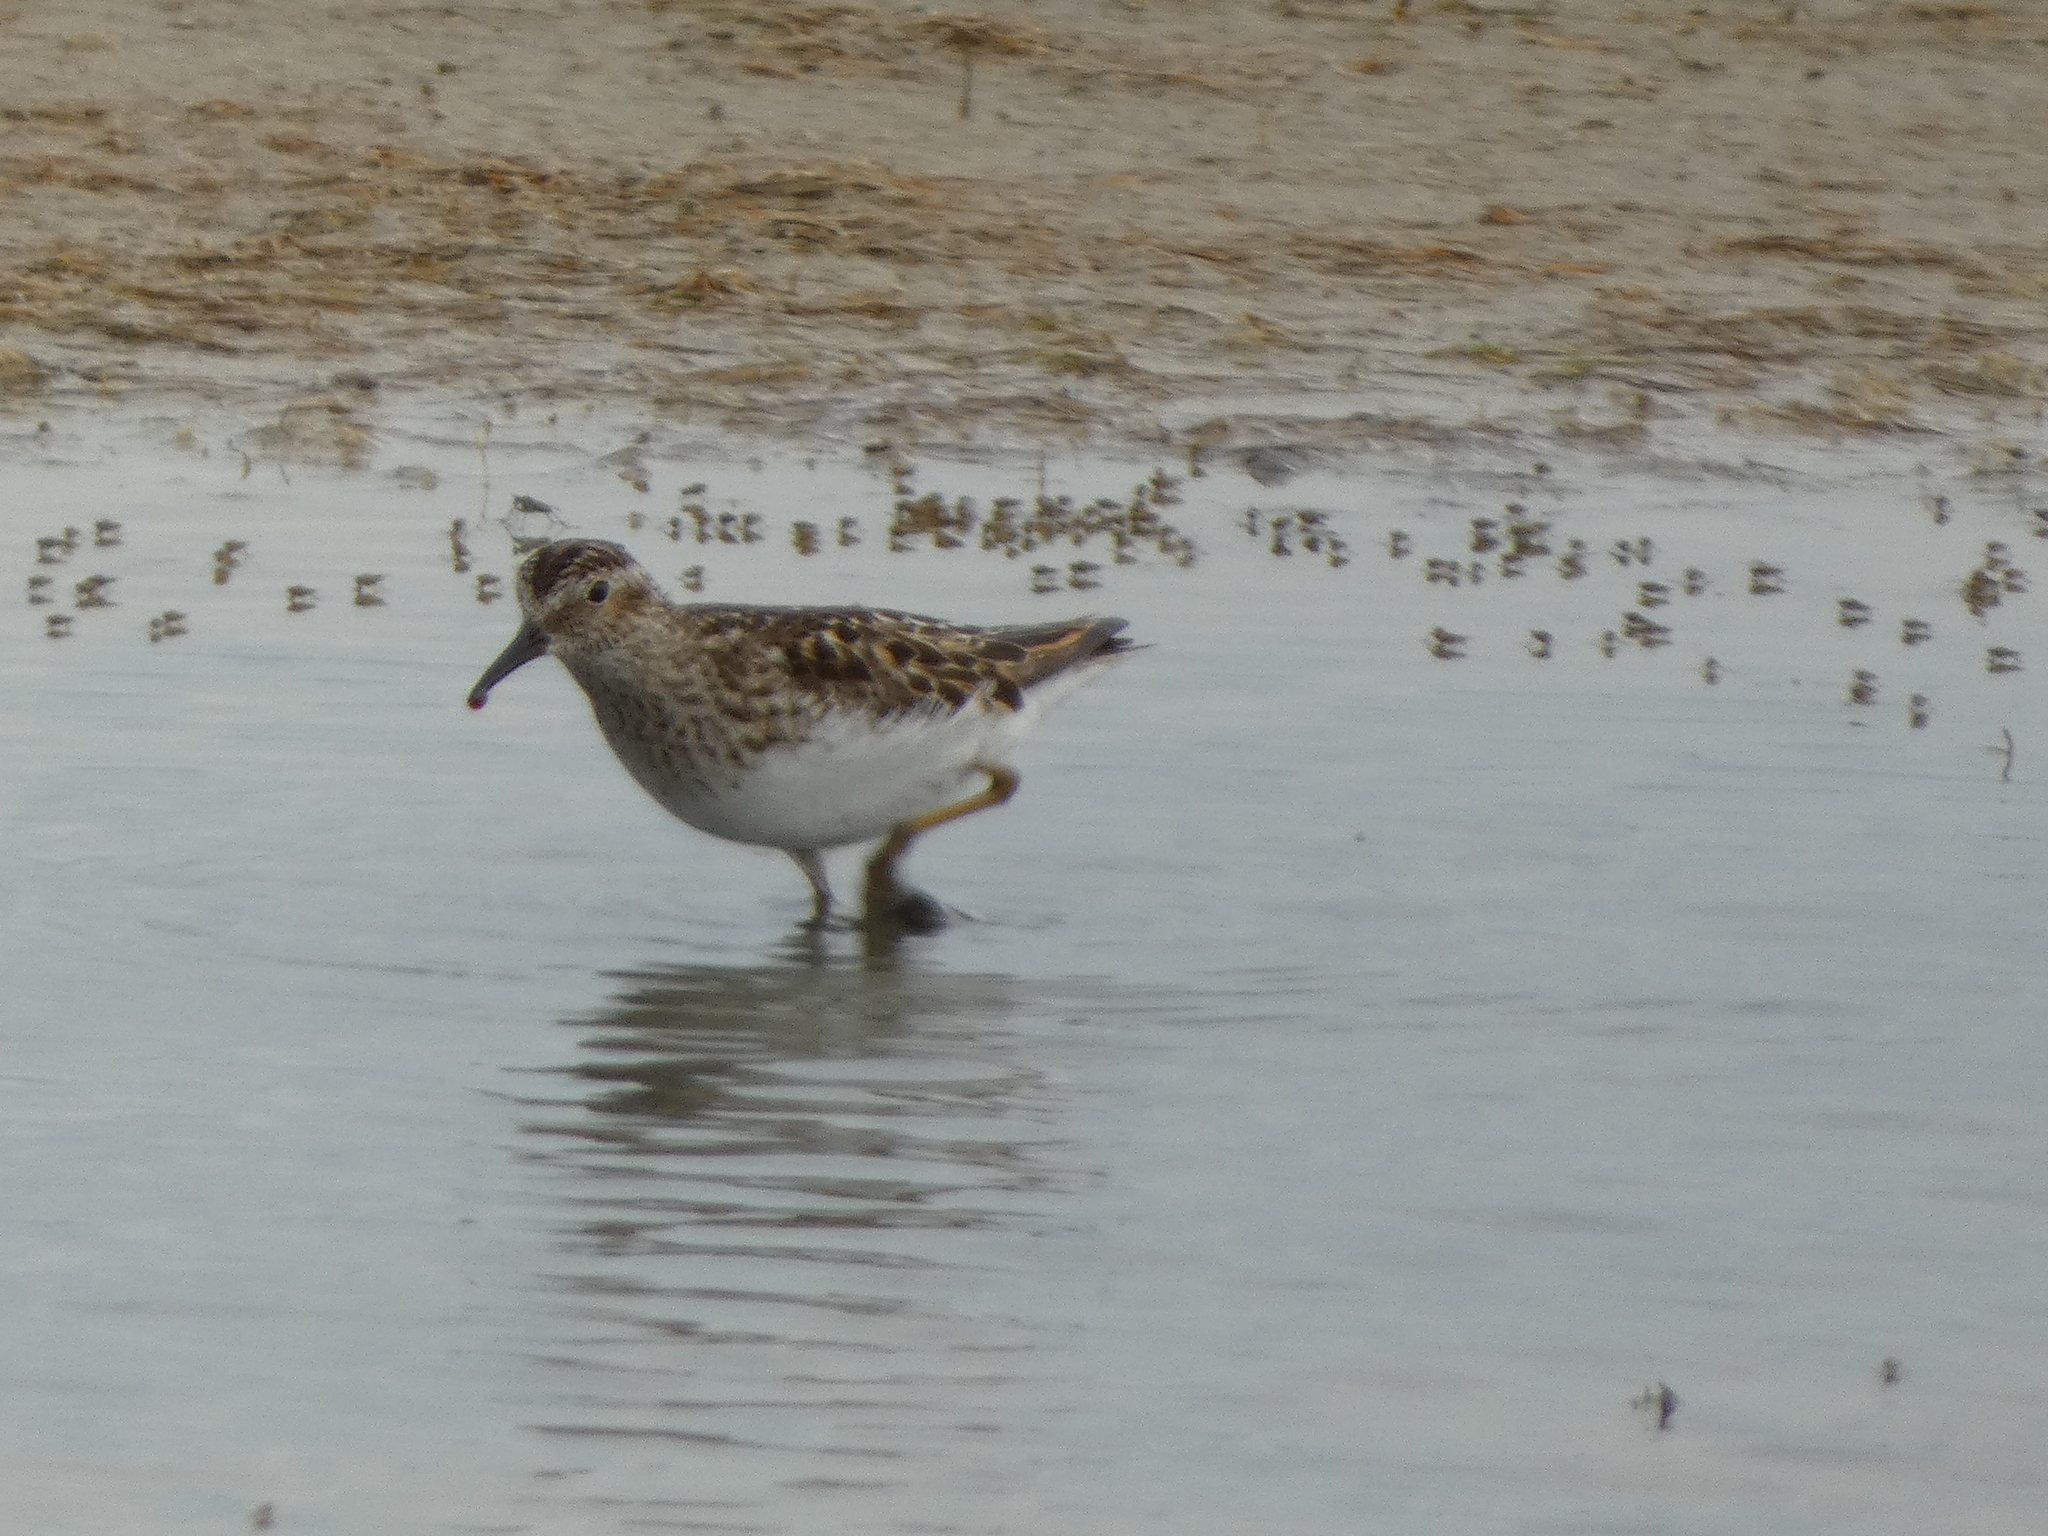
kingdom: Animalia
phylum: Chordata
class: Aves
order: Charadriiformes
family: Scolopacidae
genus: Calidris
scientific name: Calidris minutilla
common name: Least sandpiper
